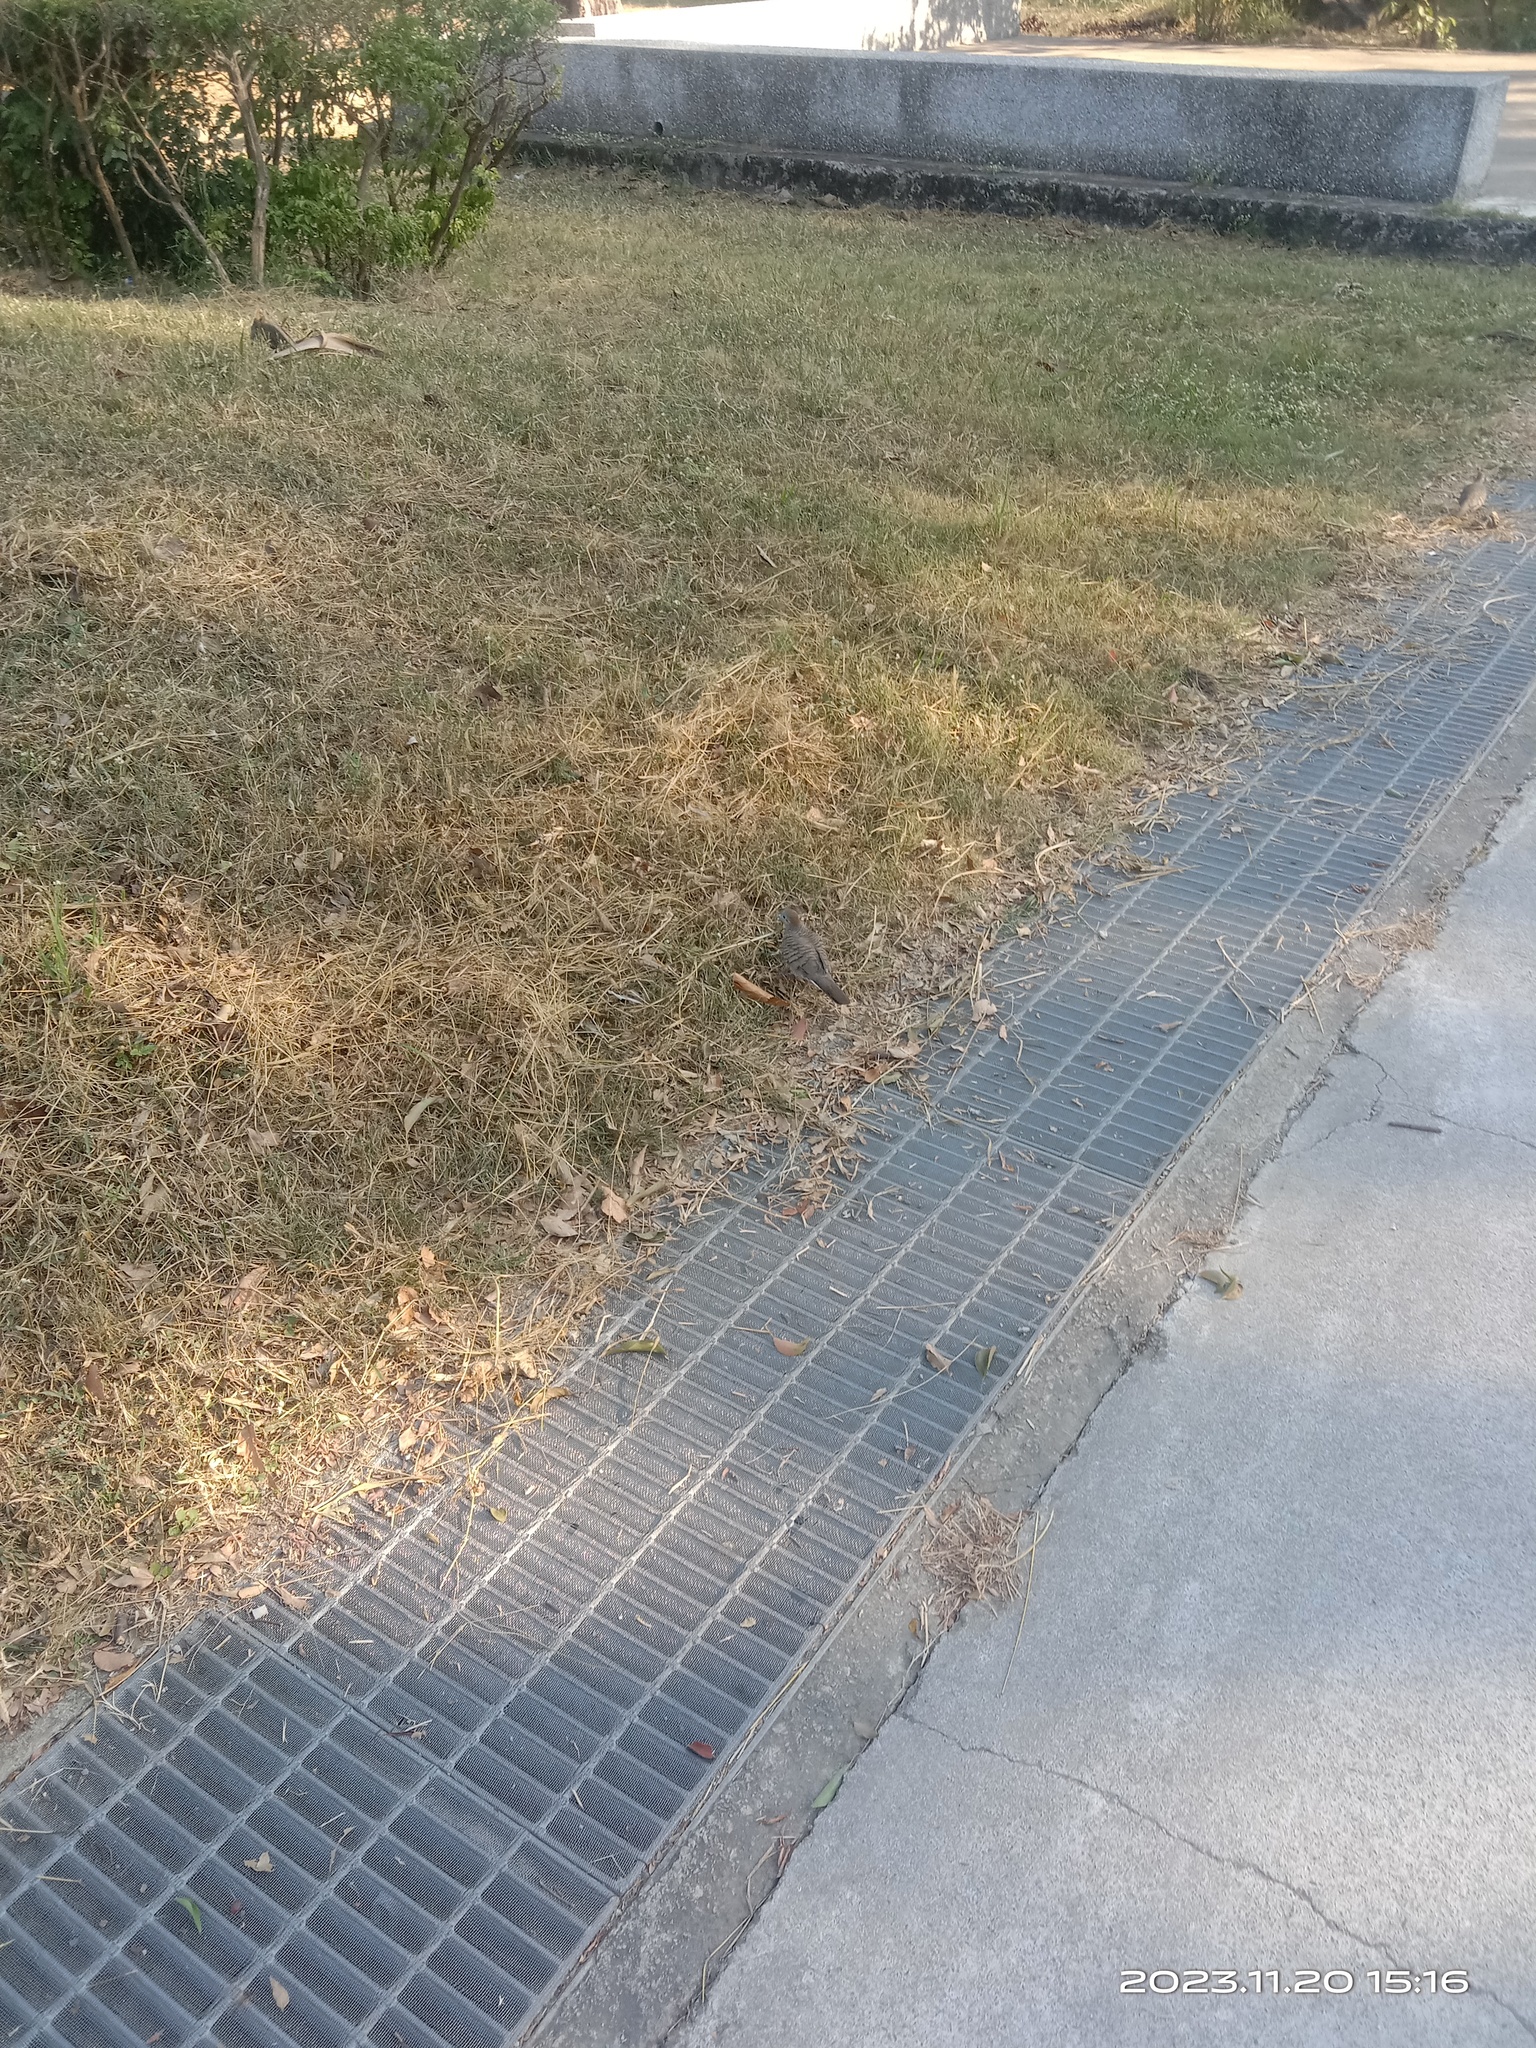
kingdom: Animalia
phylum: Chordata
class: Aves
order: Columbiformes
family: Columbidae
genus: Geopelia
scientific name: Geopelia striata
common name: Zebra dove
